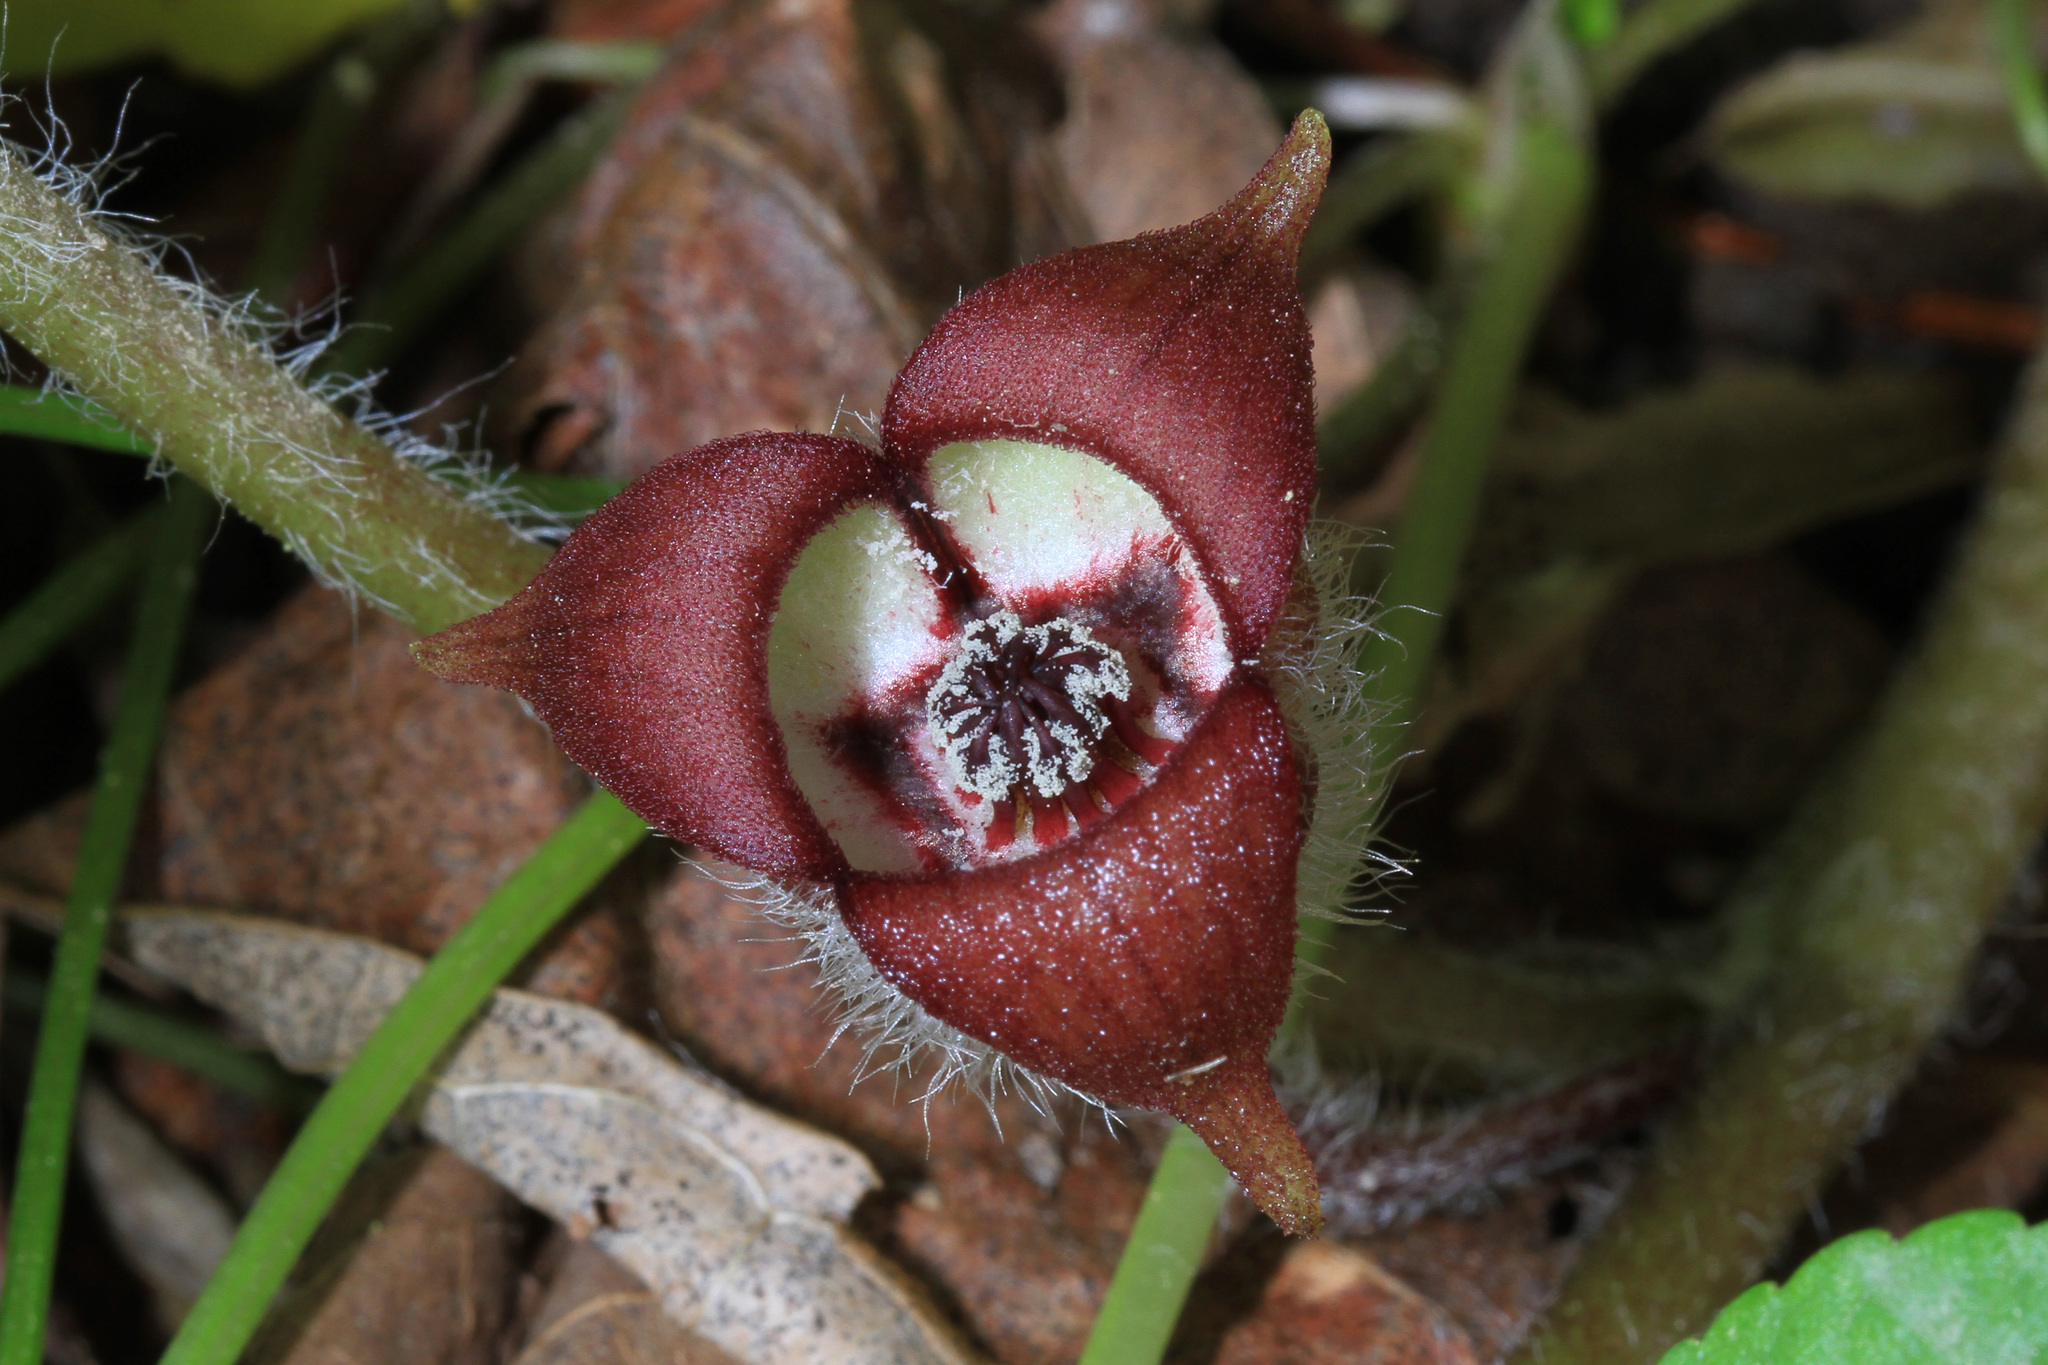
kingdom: Plantae
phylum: Tracheophyta
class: Magnoliopsida
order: Piperales
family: Aristolochiaceae
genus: Asarum
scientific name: Asarum canadense
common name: Wild ginger
